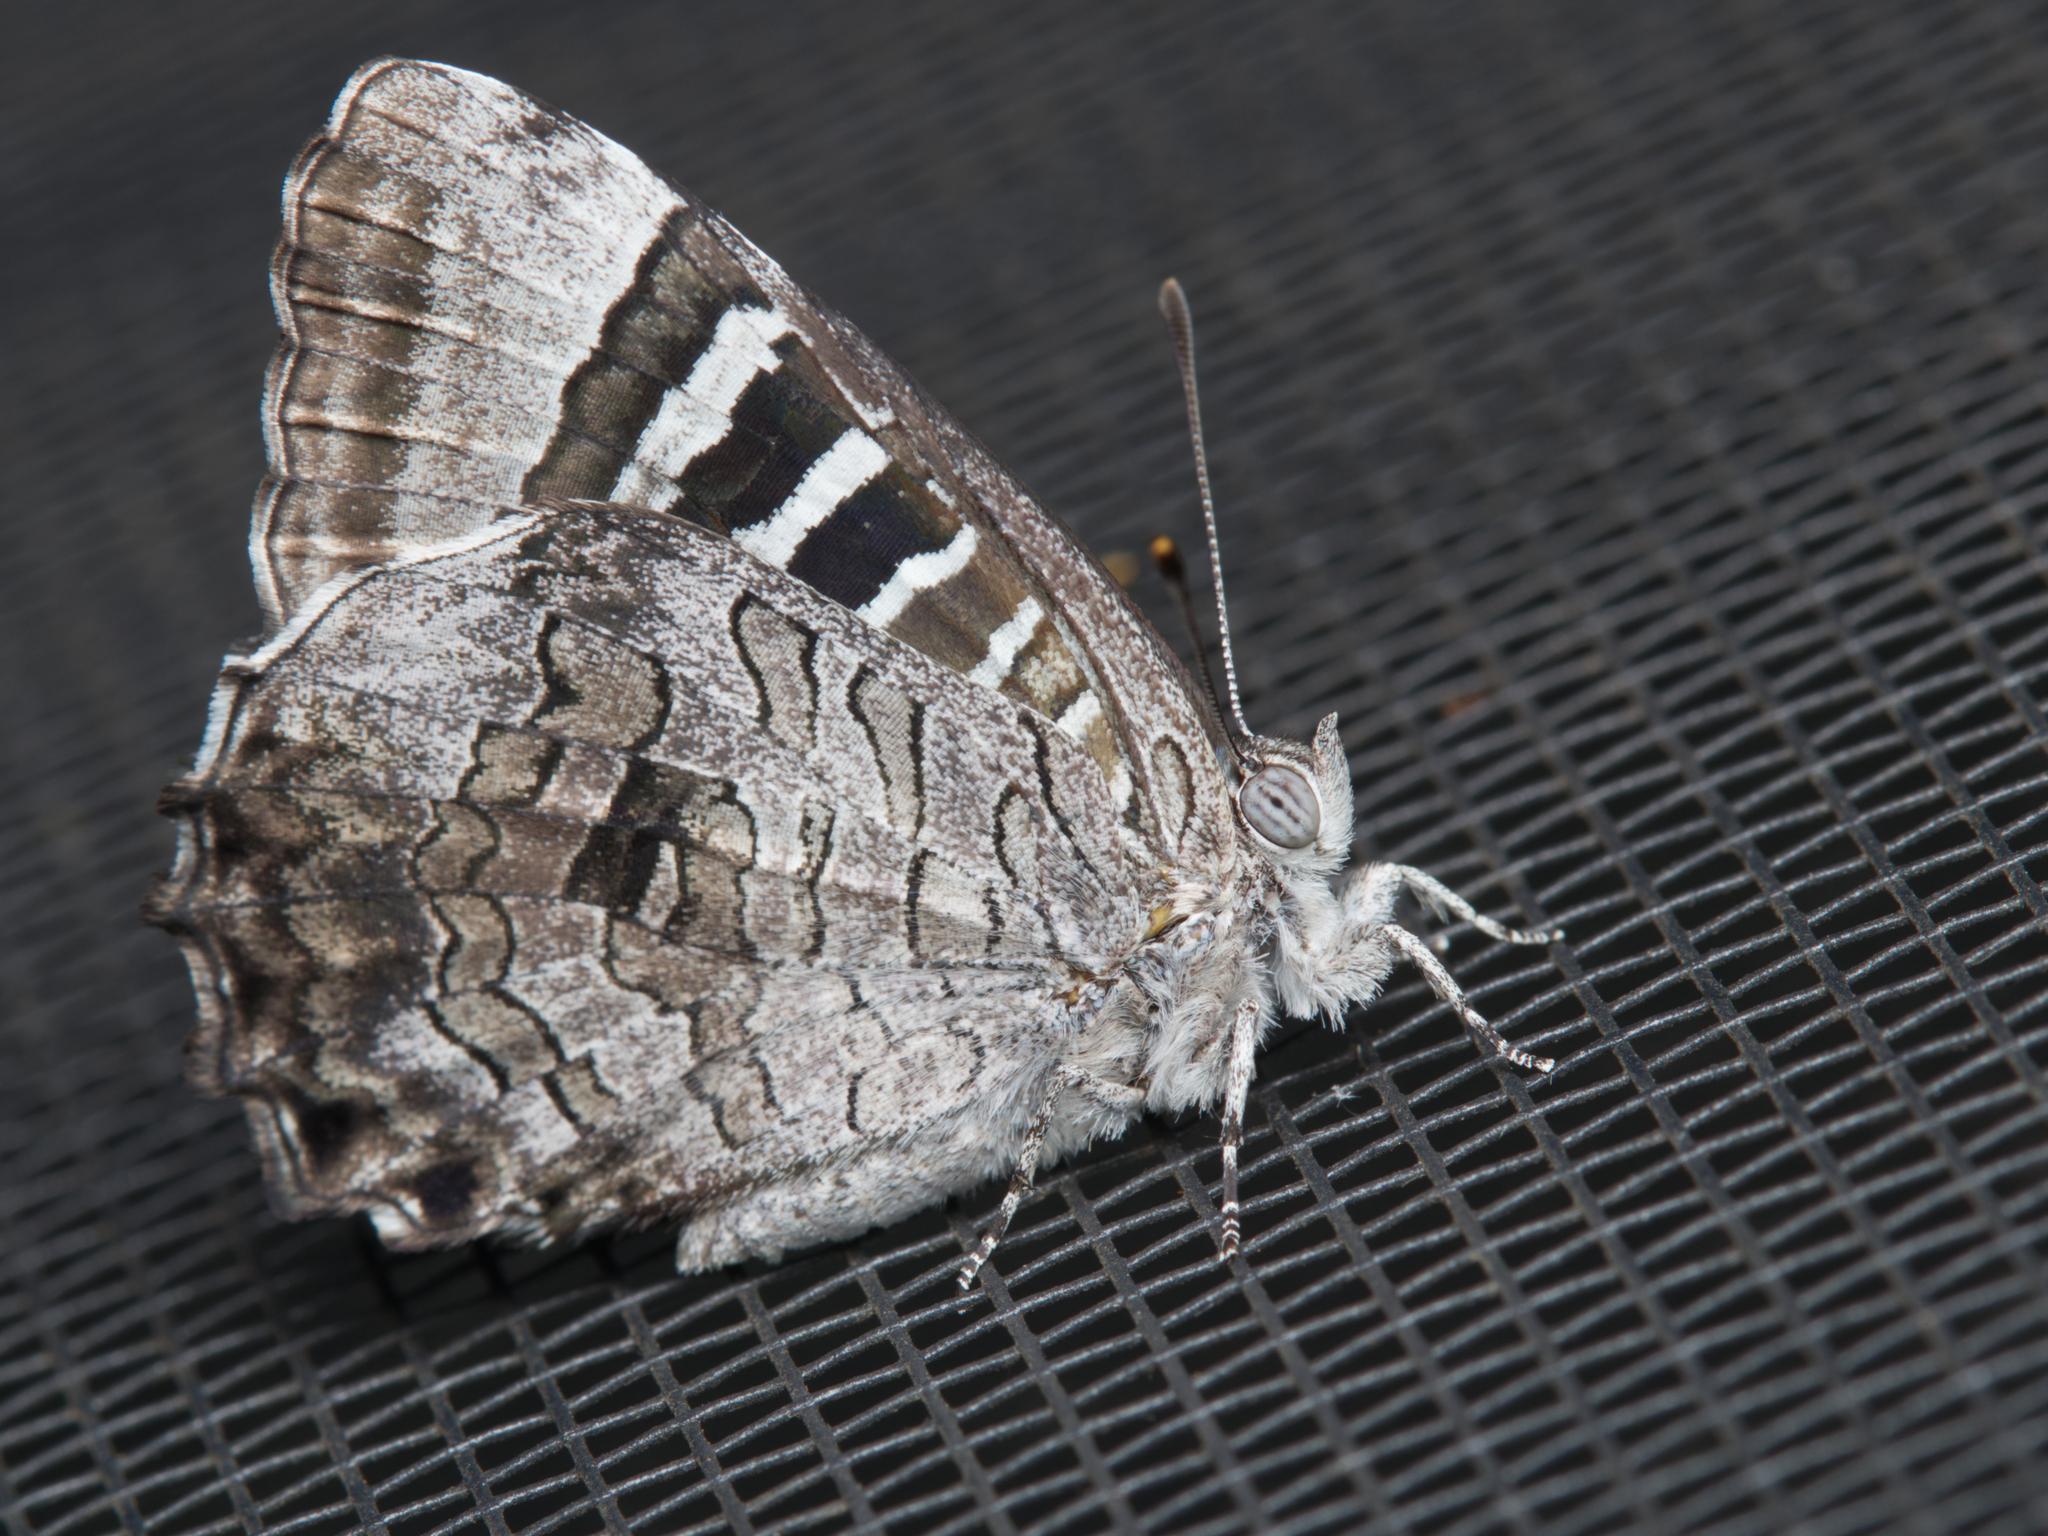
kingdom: Animalia
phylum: Arthropoda
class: Insecta
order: Lepidoptera
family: Lycaenidae
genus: Ogyris
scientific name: Ogyris oroetes
